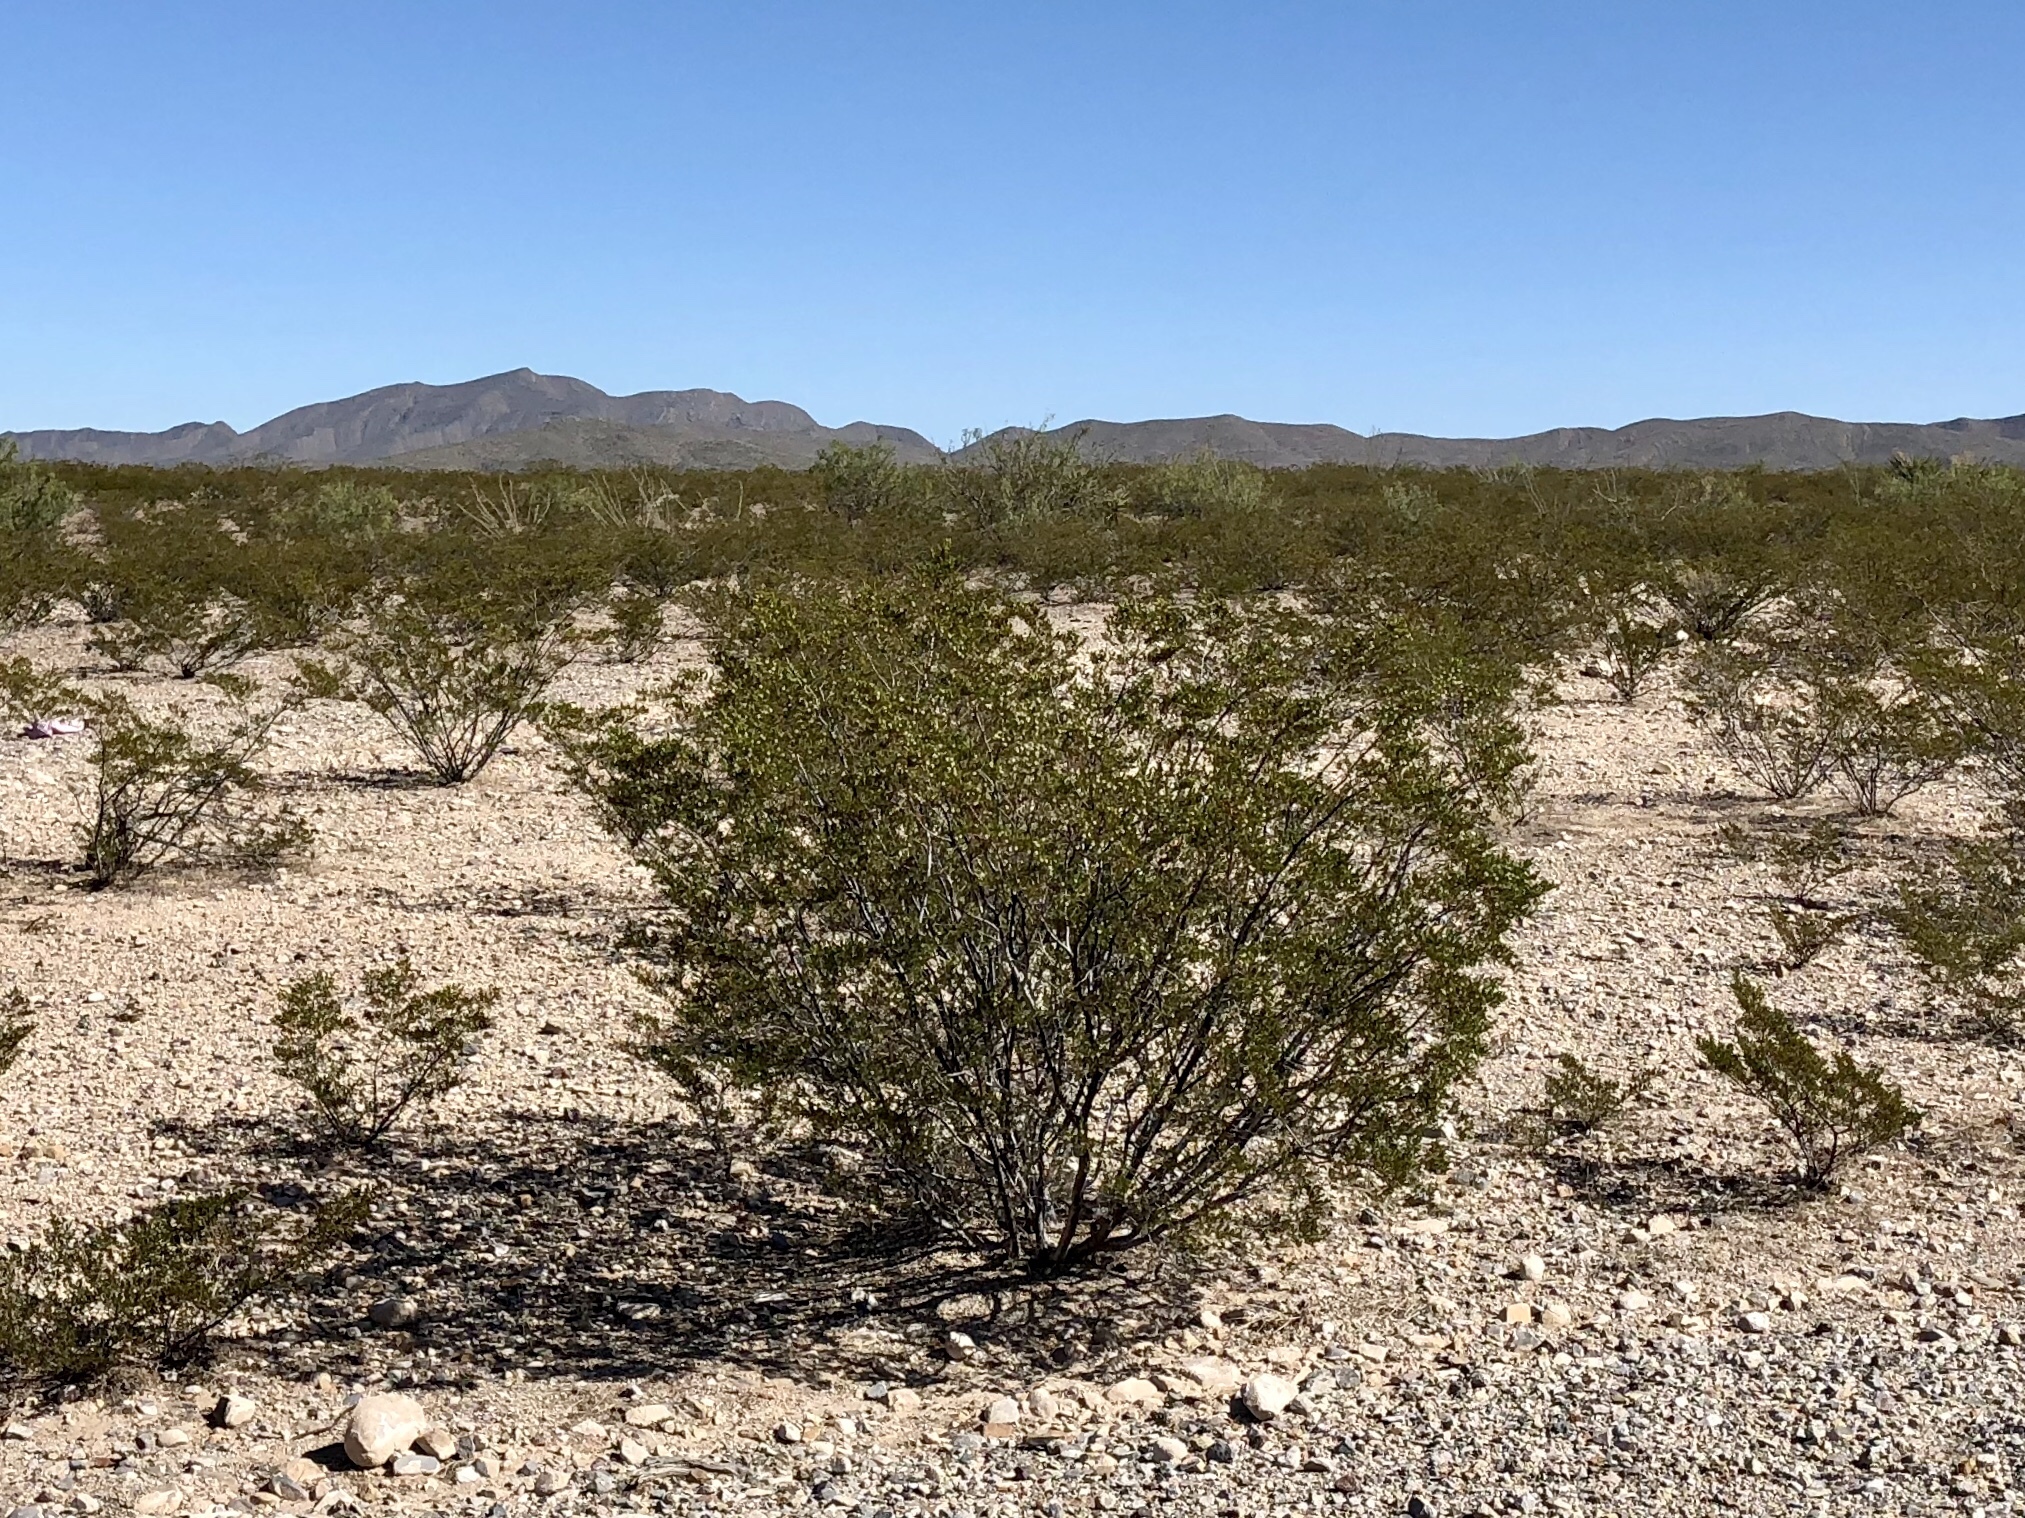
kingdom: Plantae
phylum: Tracheophyta
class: Magnoliopsida
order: Zygophyllales
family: Zygophyllaceae
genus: Larrea
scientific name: Larrea tridentata
